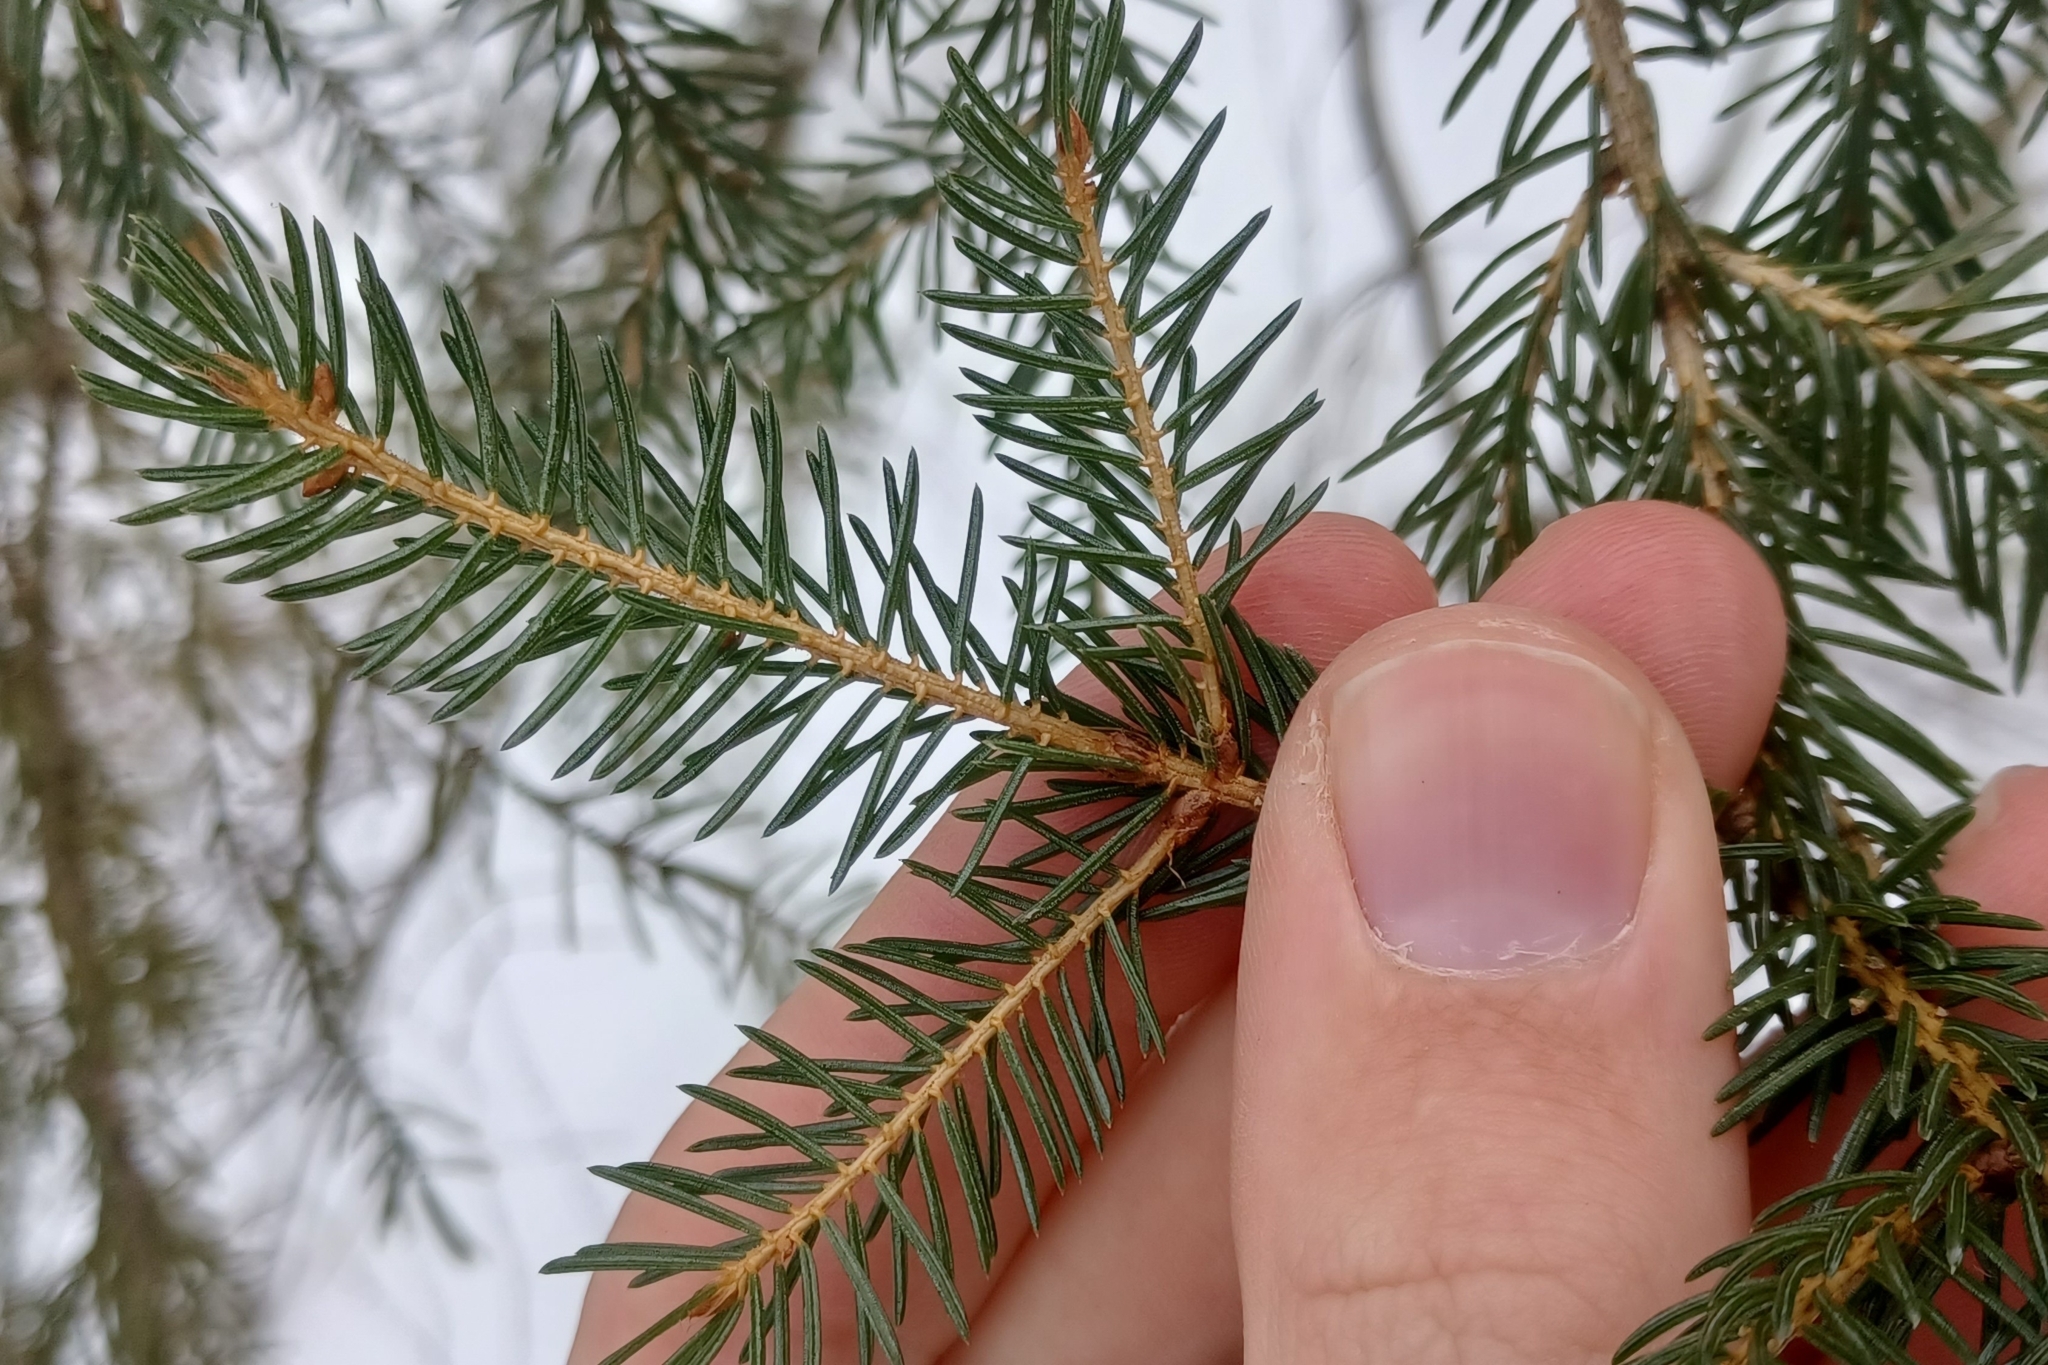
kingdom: Plantae
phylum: Tracheophyta
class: Pinopsida
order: Pinales
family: Pinaceae
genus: Picea
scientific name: Picea rubens
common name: Red spruce
